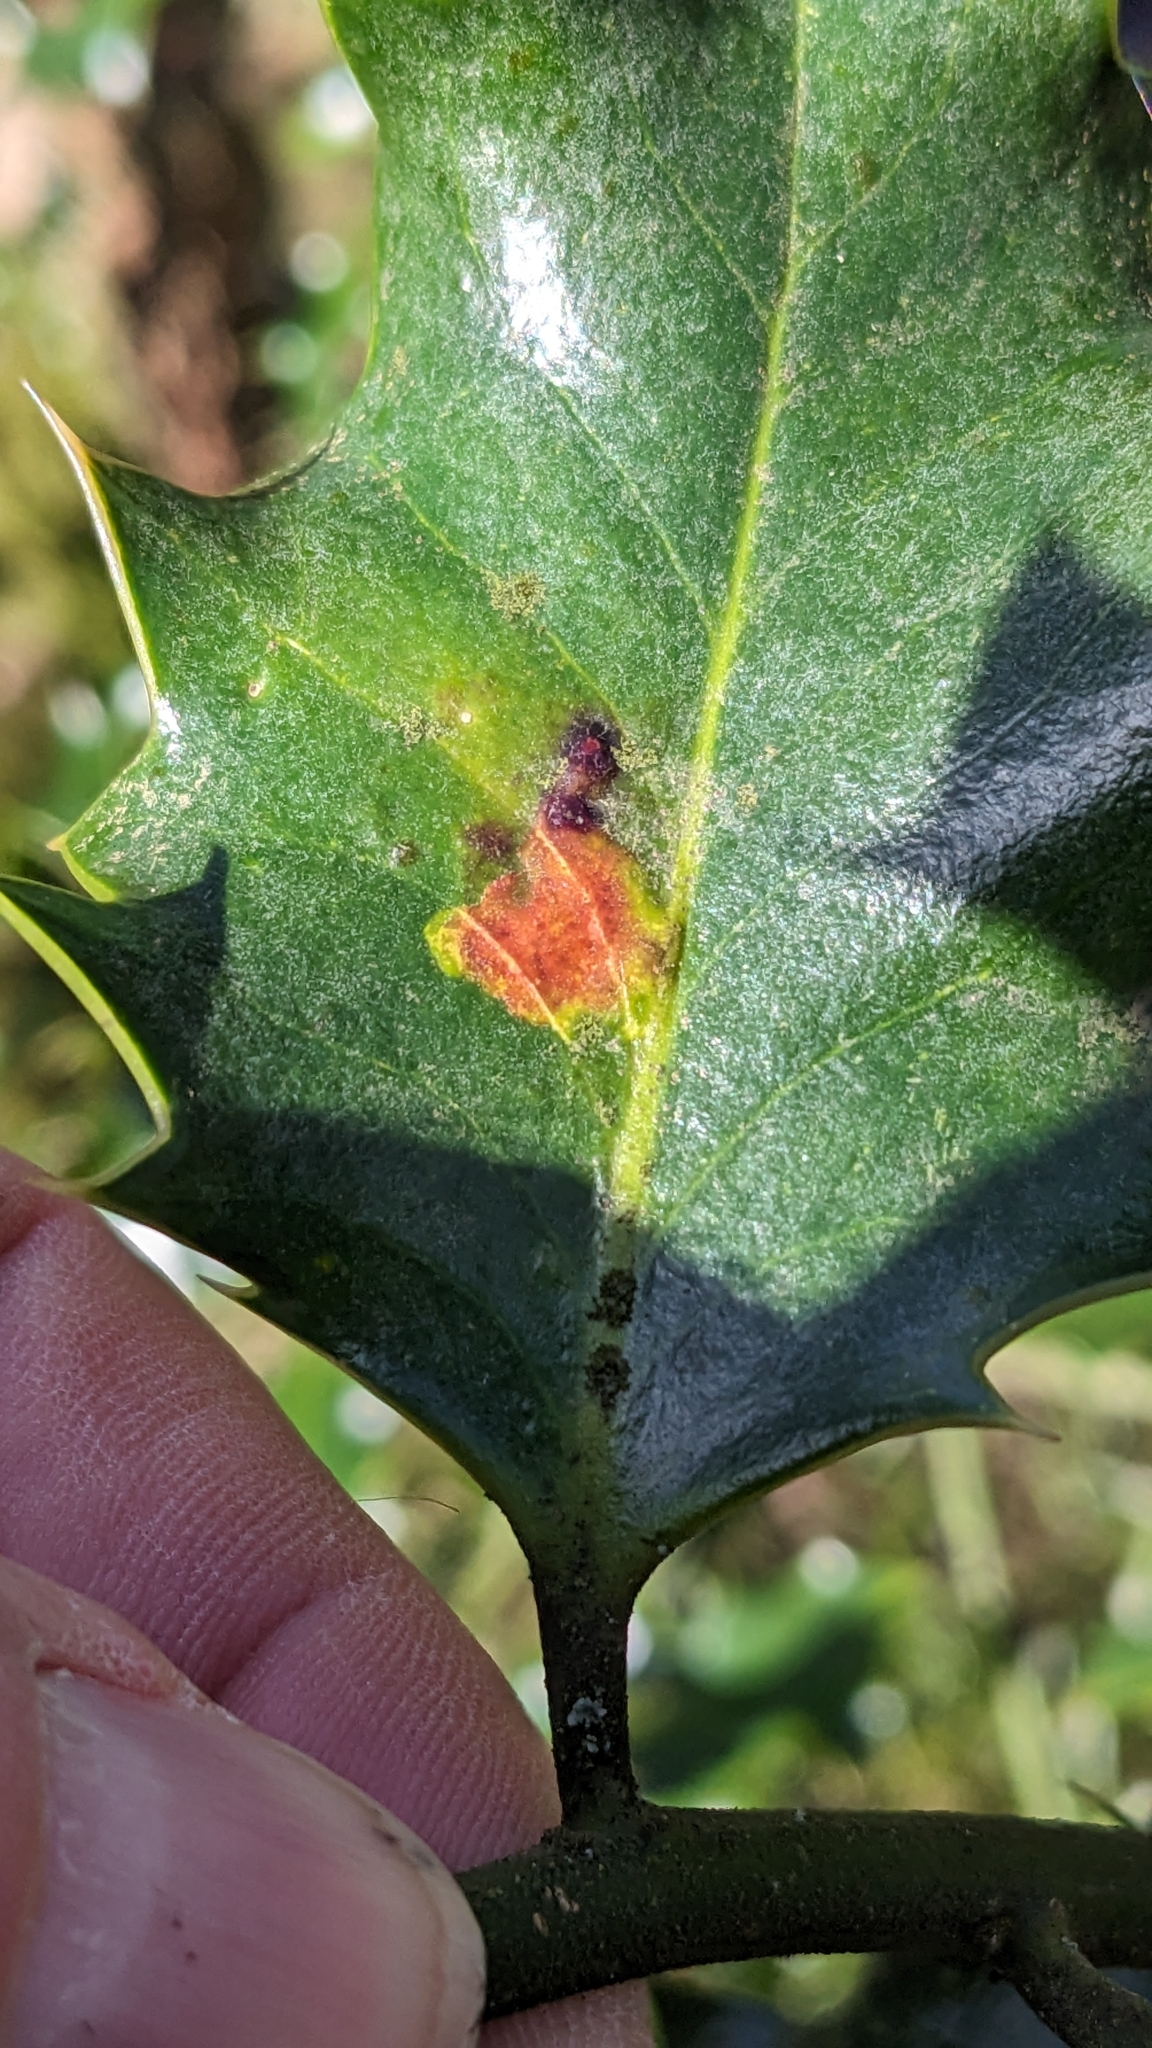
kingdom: Animalia
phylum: Arthropoda
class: Insecta
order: Diptera
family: Agromyzidae
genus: Phytomyza
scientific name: Phytomyza ilicis
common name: Holly leafminer
